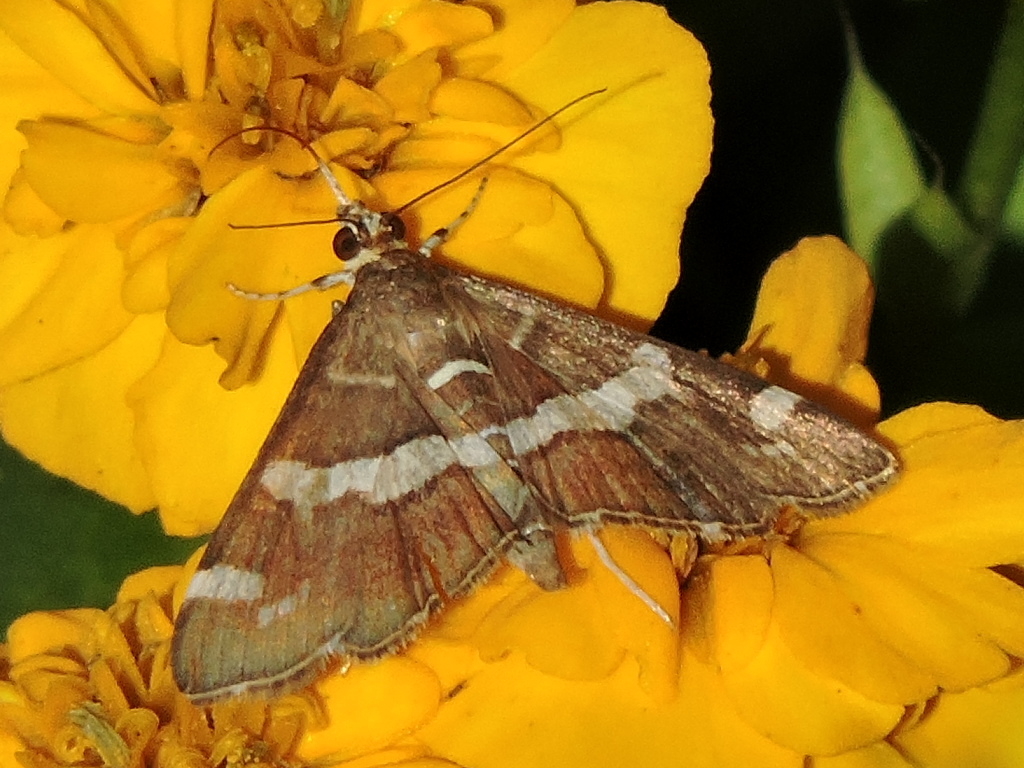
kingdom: Animalia
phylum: Arthropoda
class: Insecta
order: Lepidoptera
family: Crambidae
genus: Spoladea
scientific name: Spoladea recurvalis
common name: Beet webworm moth
